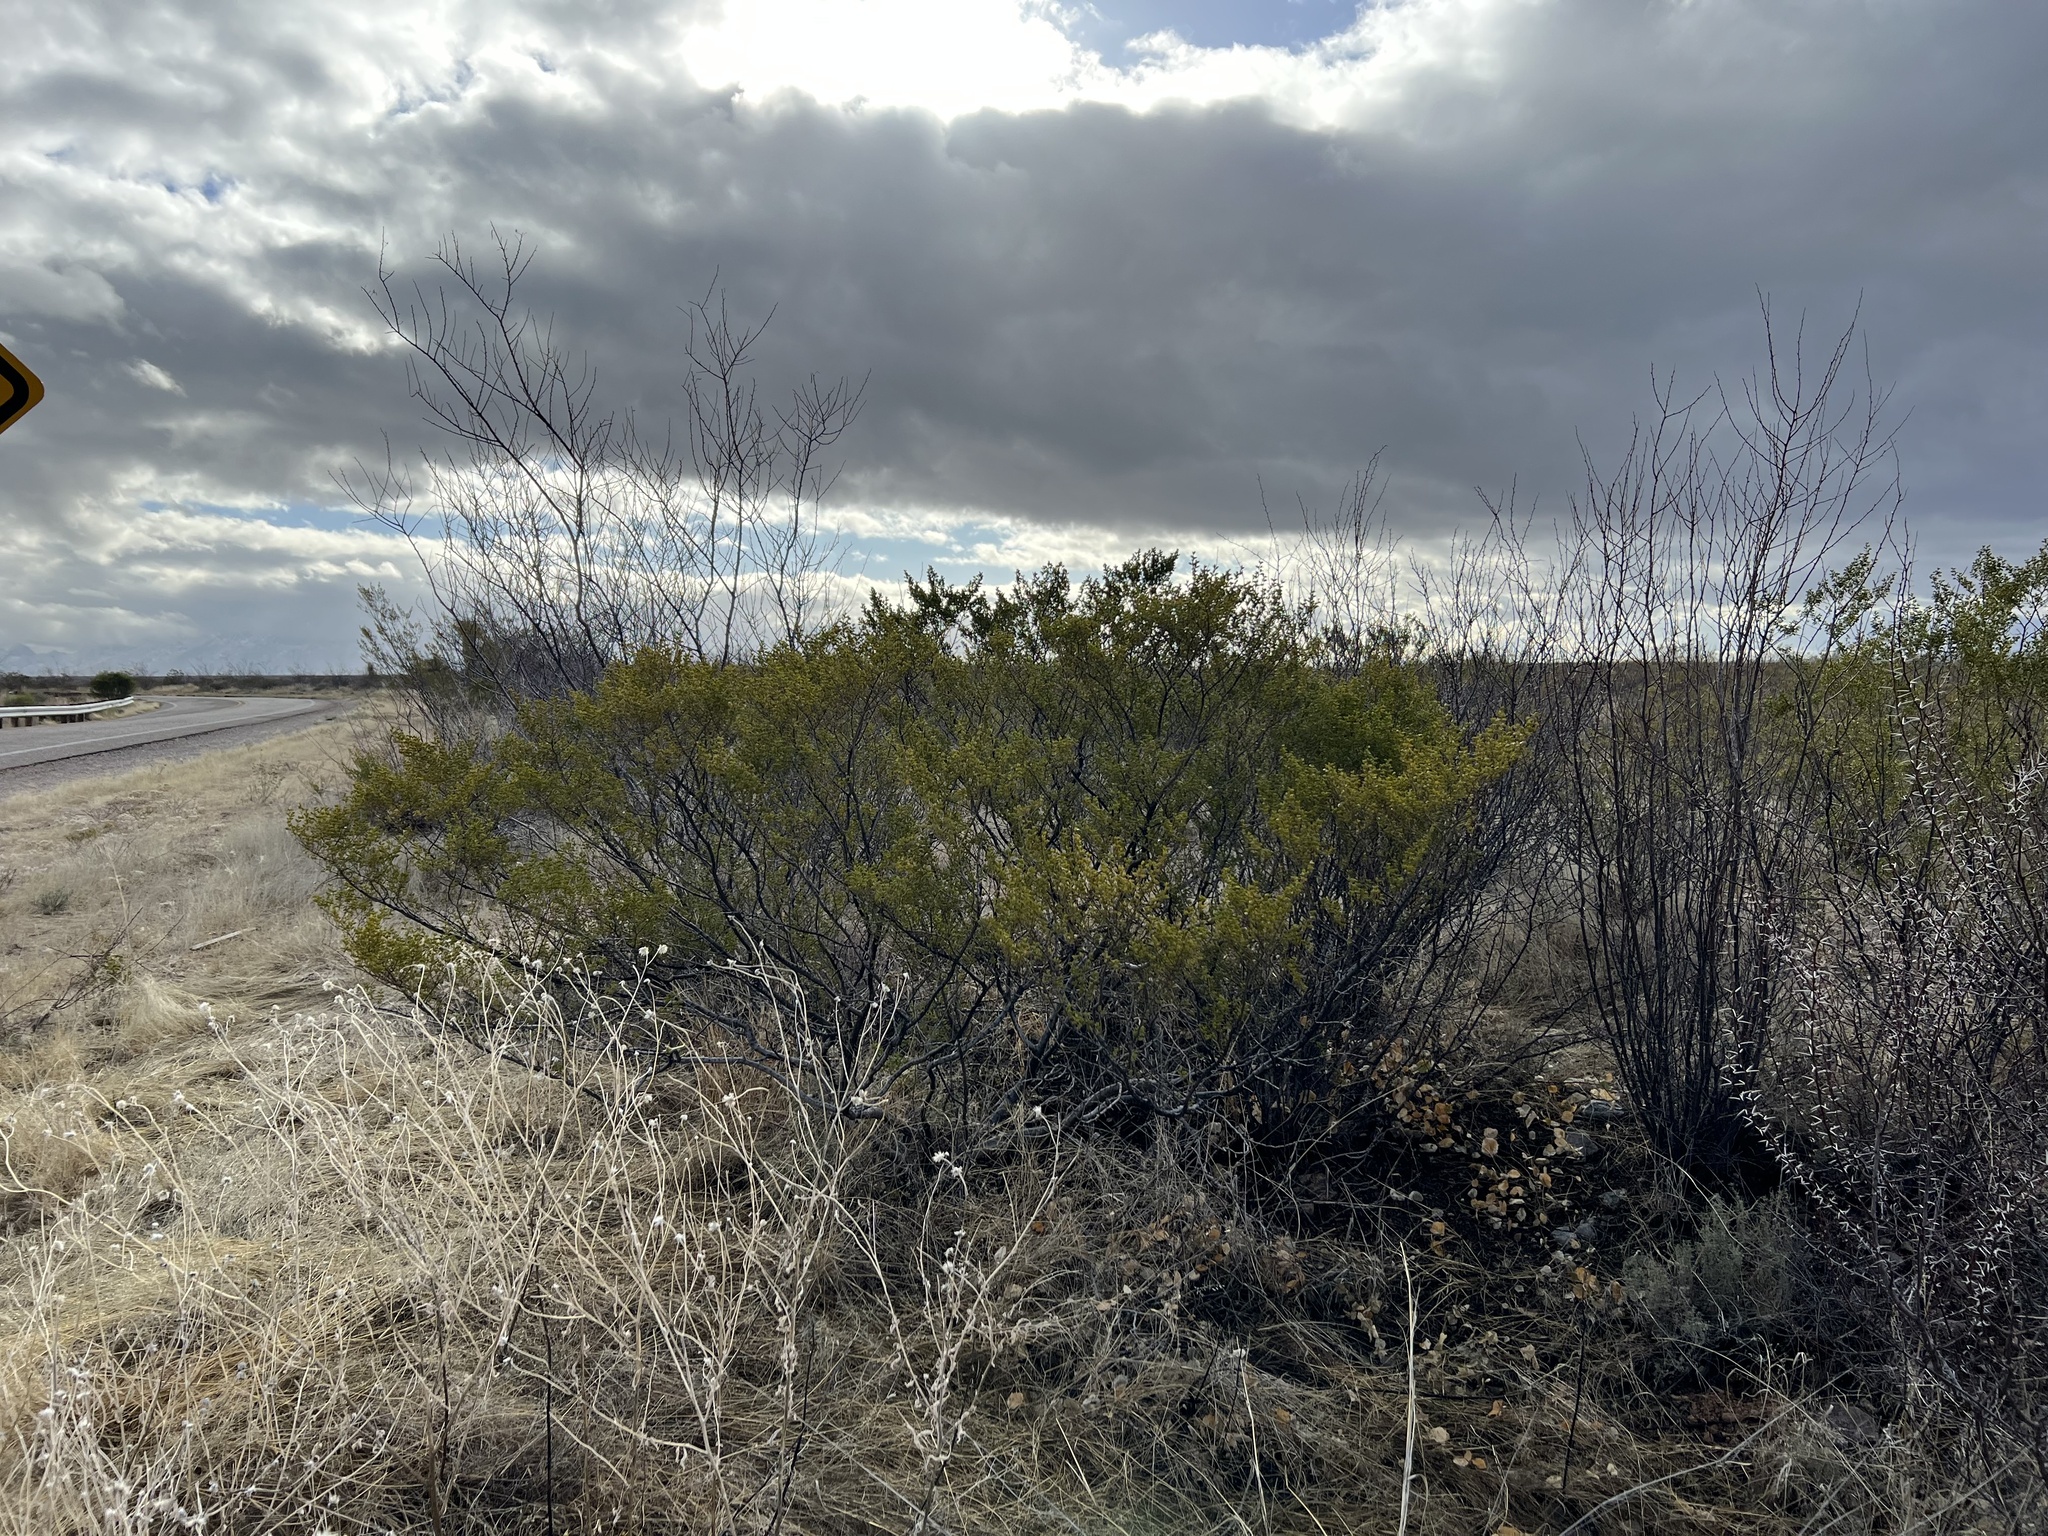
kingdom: Plantae
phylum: Tracheophyta
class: Magnoliopsida
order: Zygophyllales
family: Zygophyllaceae
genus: Larrea
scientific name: Larrea tridentata
